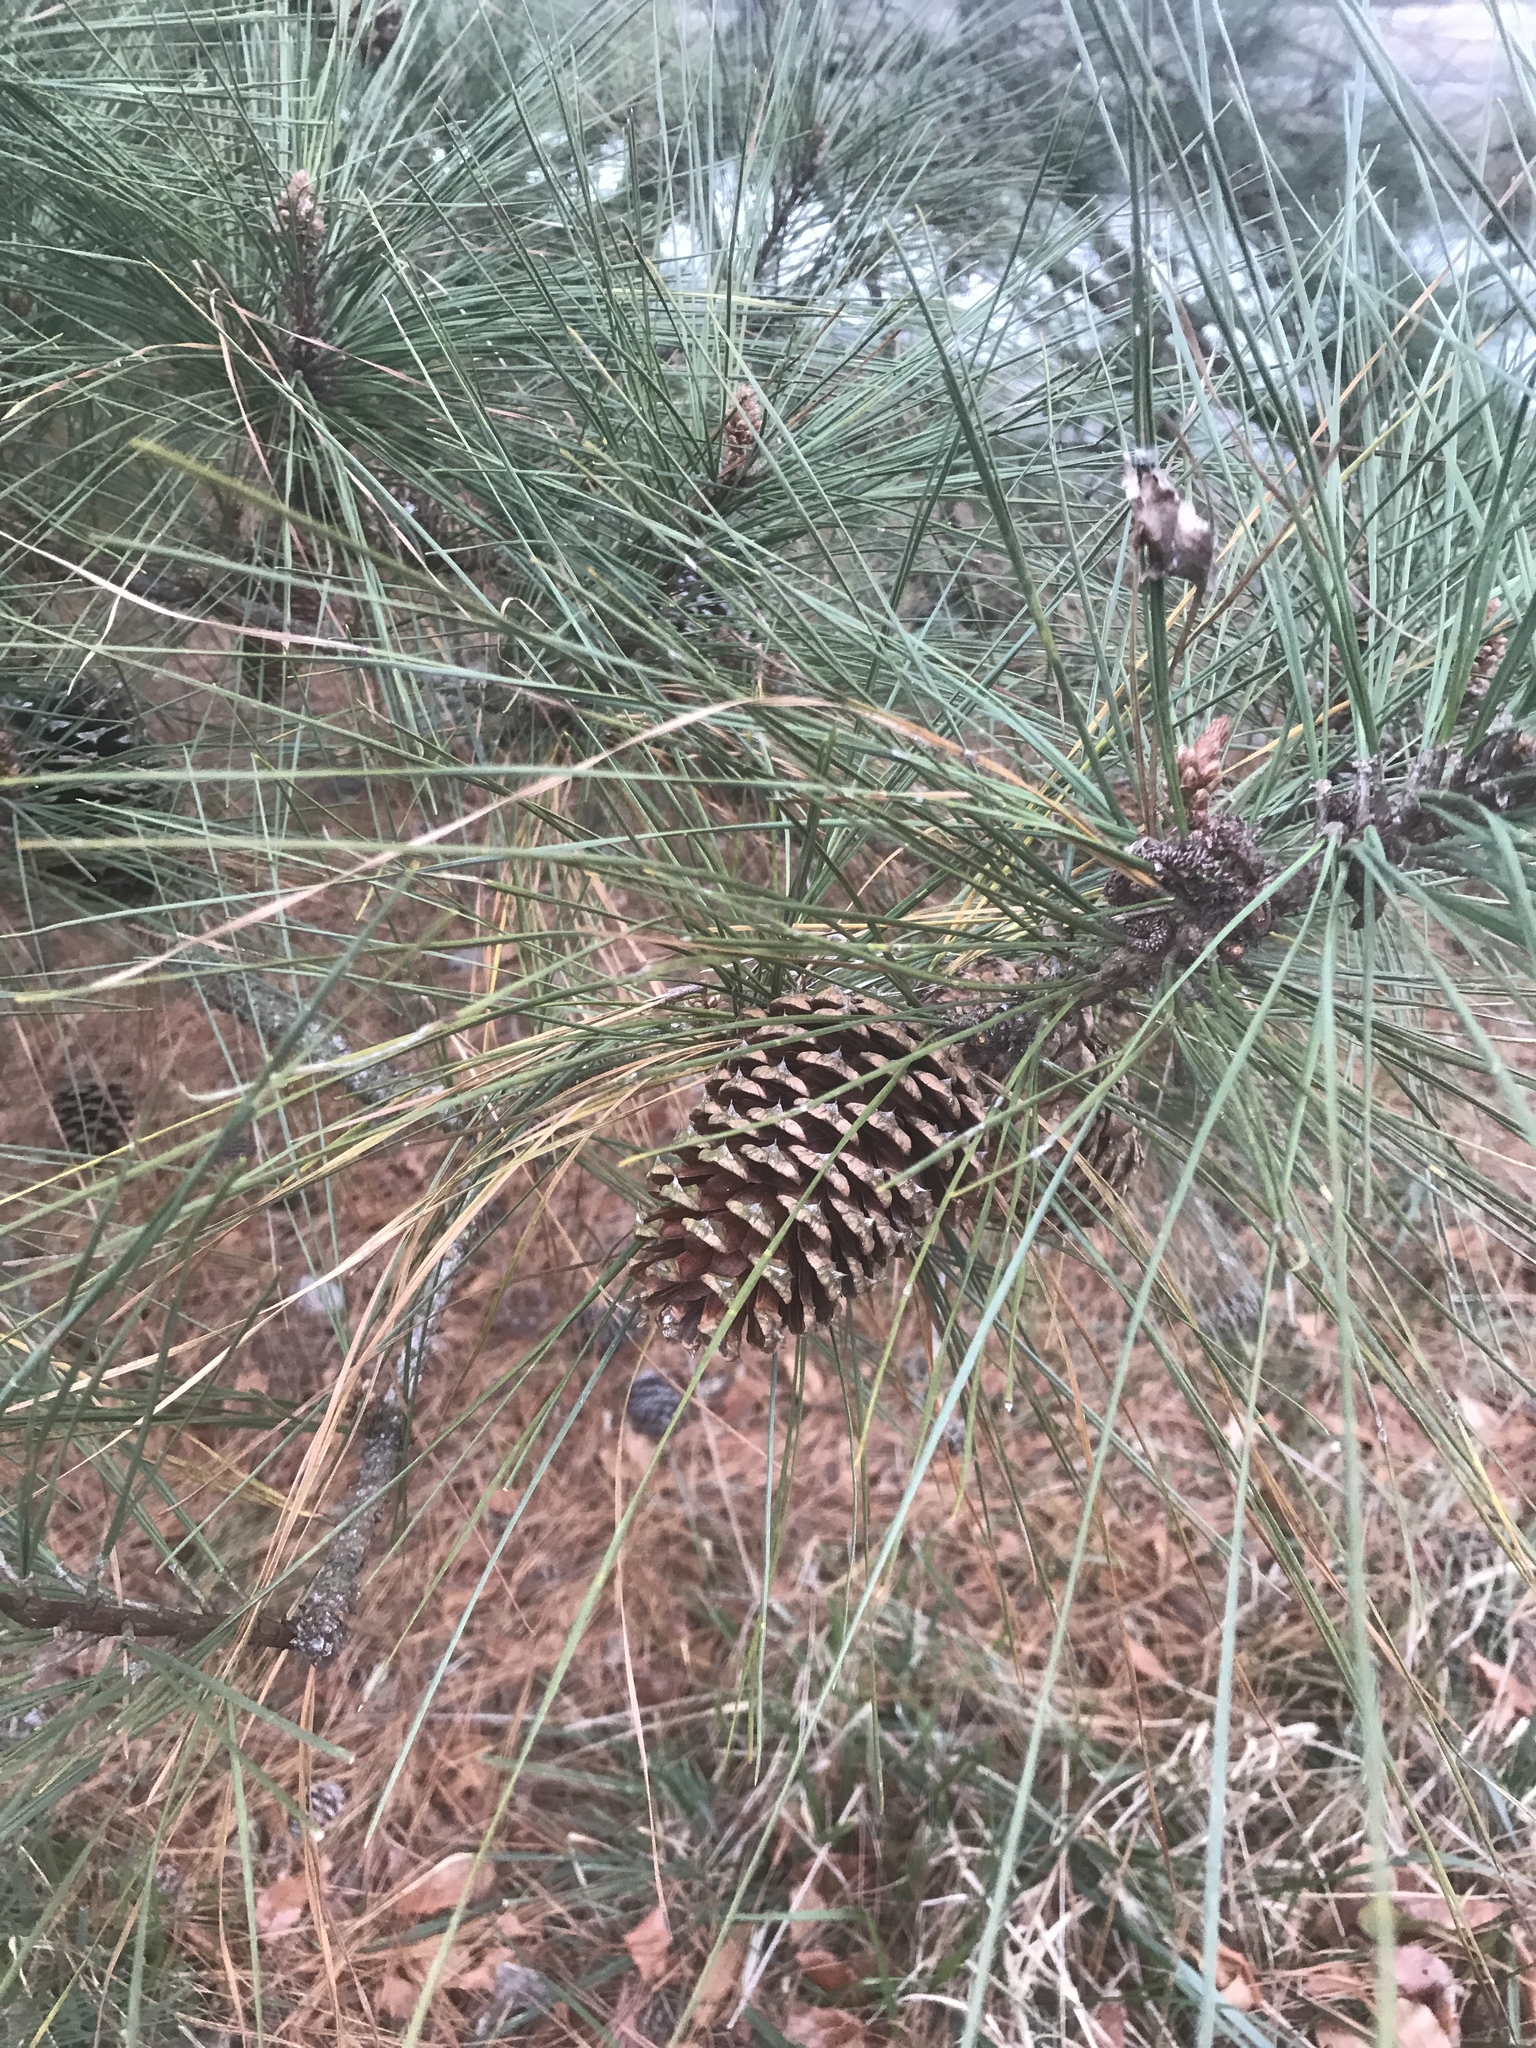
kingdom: Plantae
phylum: Tracheophyta
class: Pinopsida
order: Pinales
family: Pinaceae
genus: Pinus
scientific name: Pinus taeda
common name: Loblolly pine
